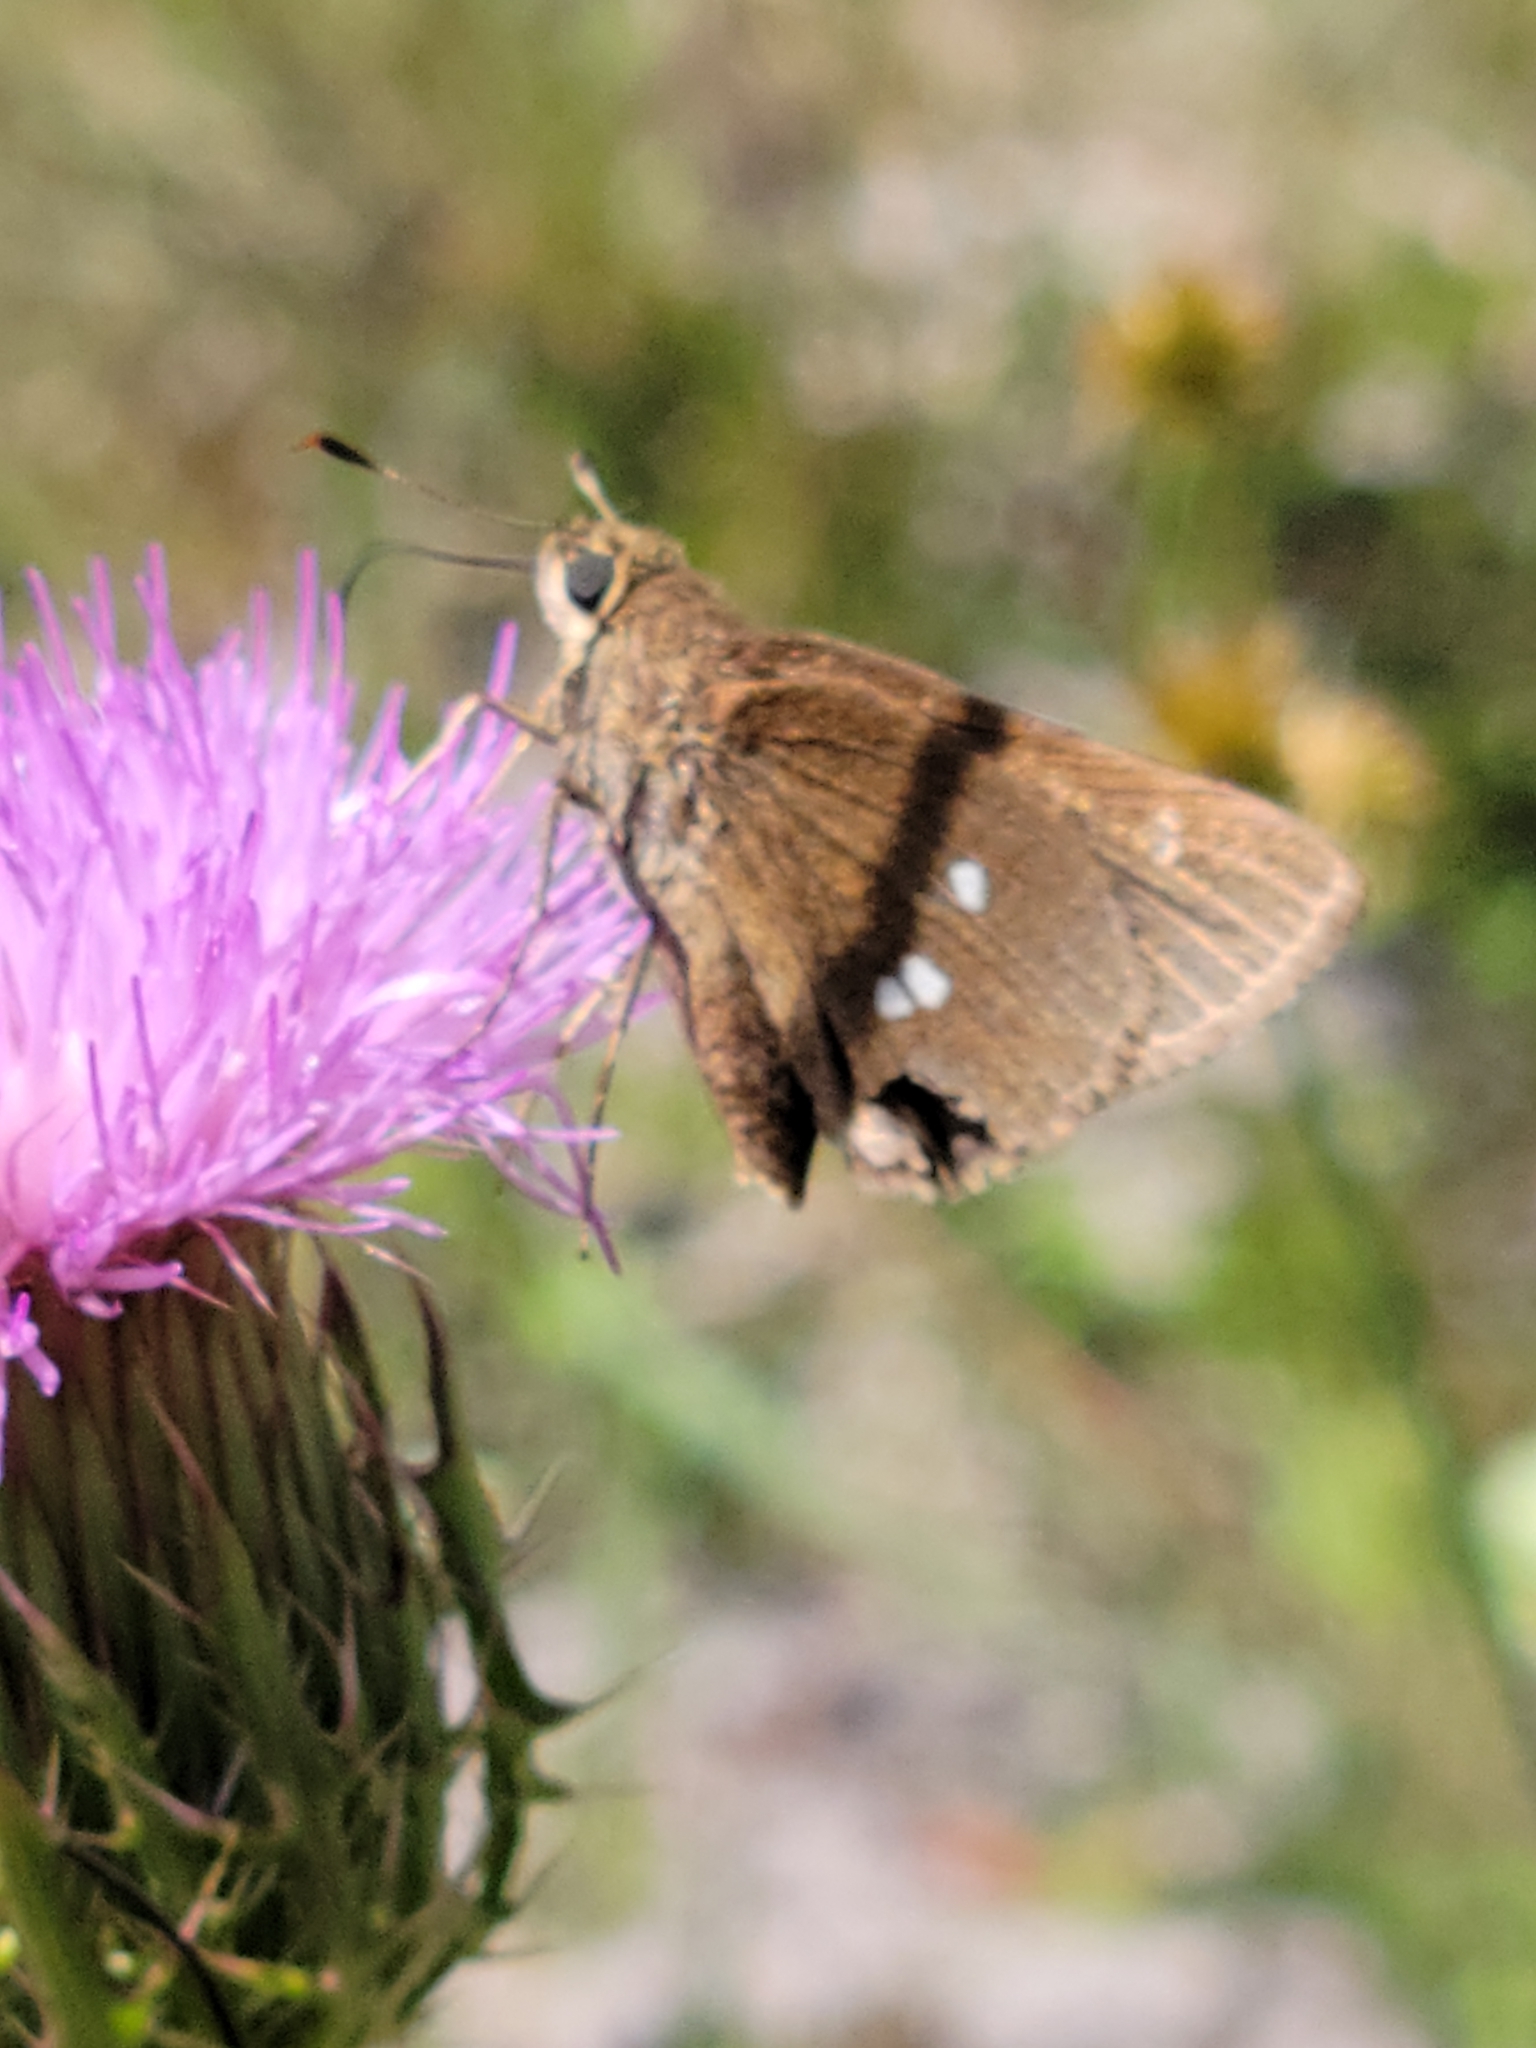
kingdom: Animalia
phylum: Arthropoda
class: Insecta
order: Lepidoptera
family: Hesperiidae
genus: Oligoria
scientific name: Oligoria maculata
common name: Twin-spot skipper
